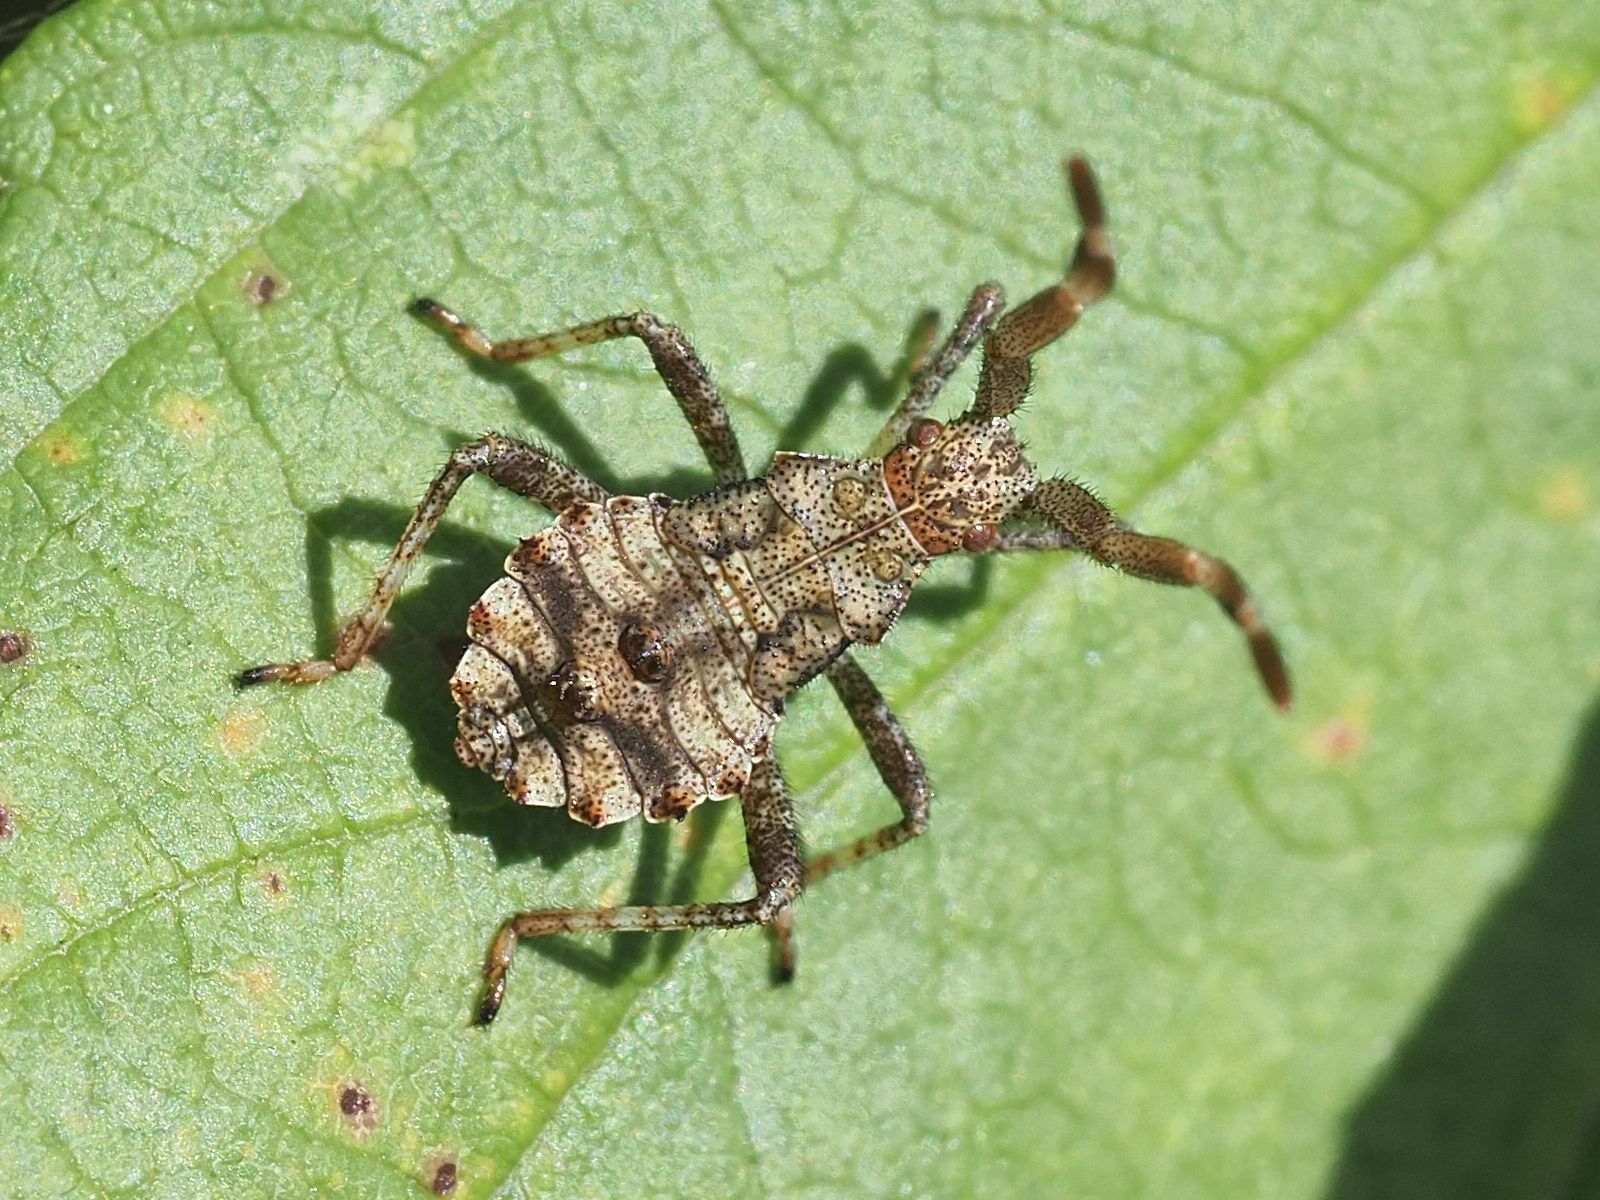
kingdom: Animalia
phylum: Arthropoda
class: Insecta
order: Hemiptera
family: Coreidae
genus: Coreus
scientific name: Coreus marginatus
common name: Dock bug
